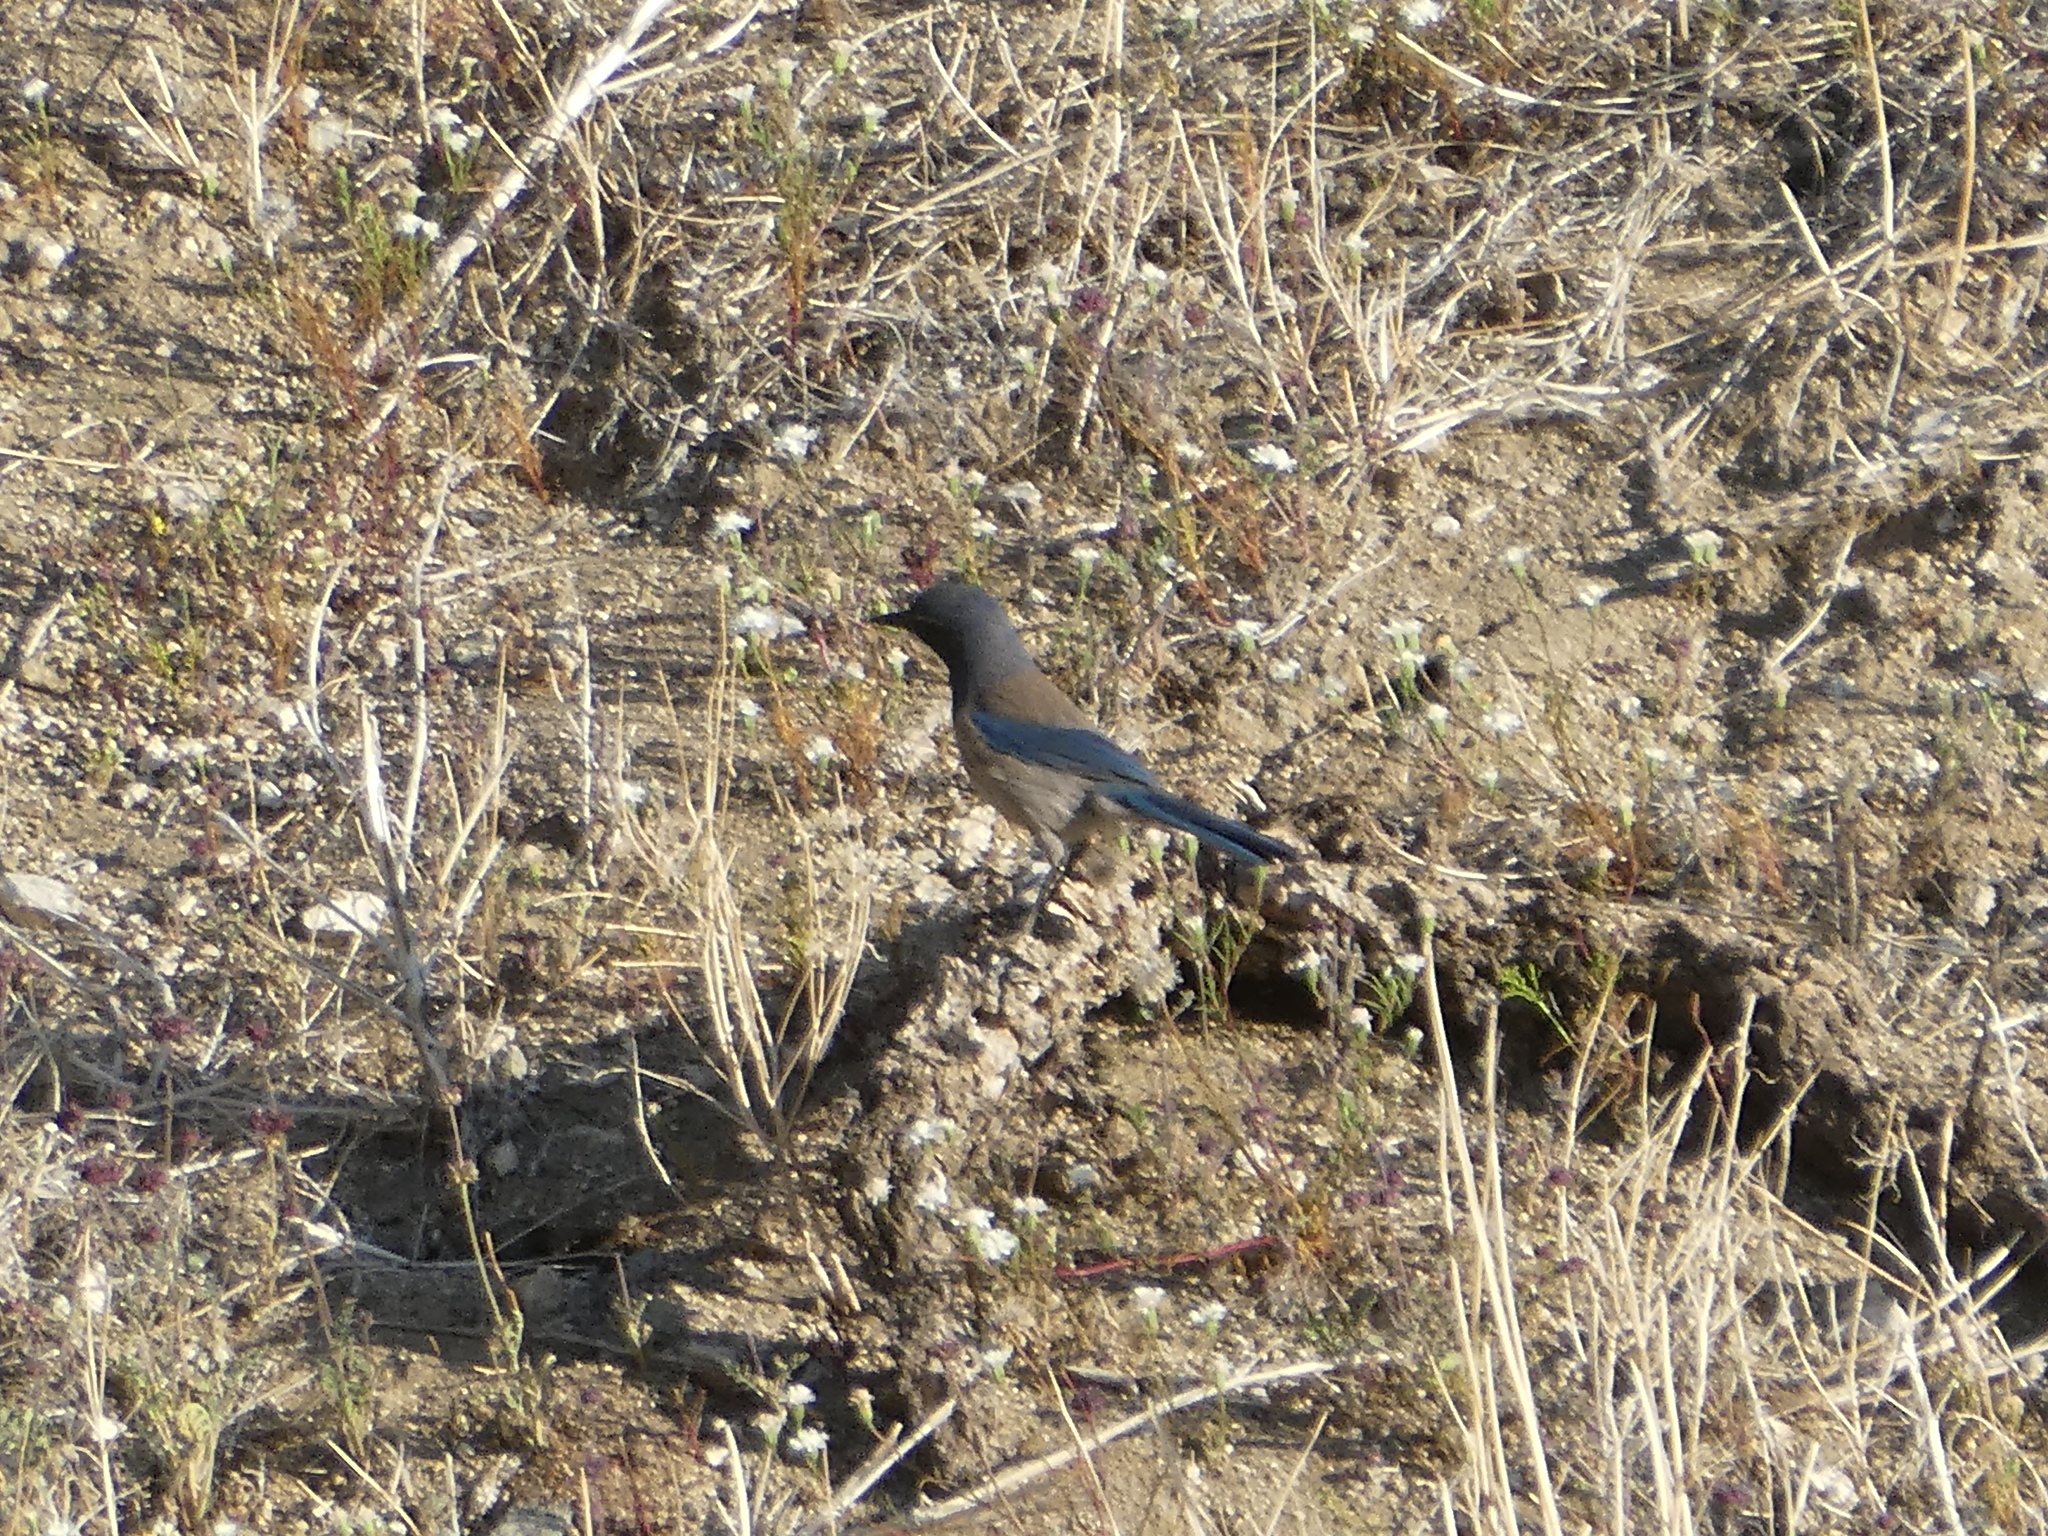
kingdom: Animalia
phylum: Chordata
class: Aves
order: Passeriformes
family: Corvidae
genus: Aphelocoma
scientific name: Aphelocoma californica
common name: California scrub-jay
